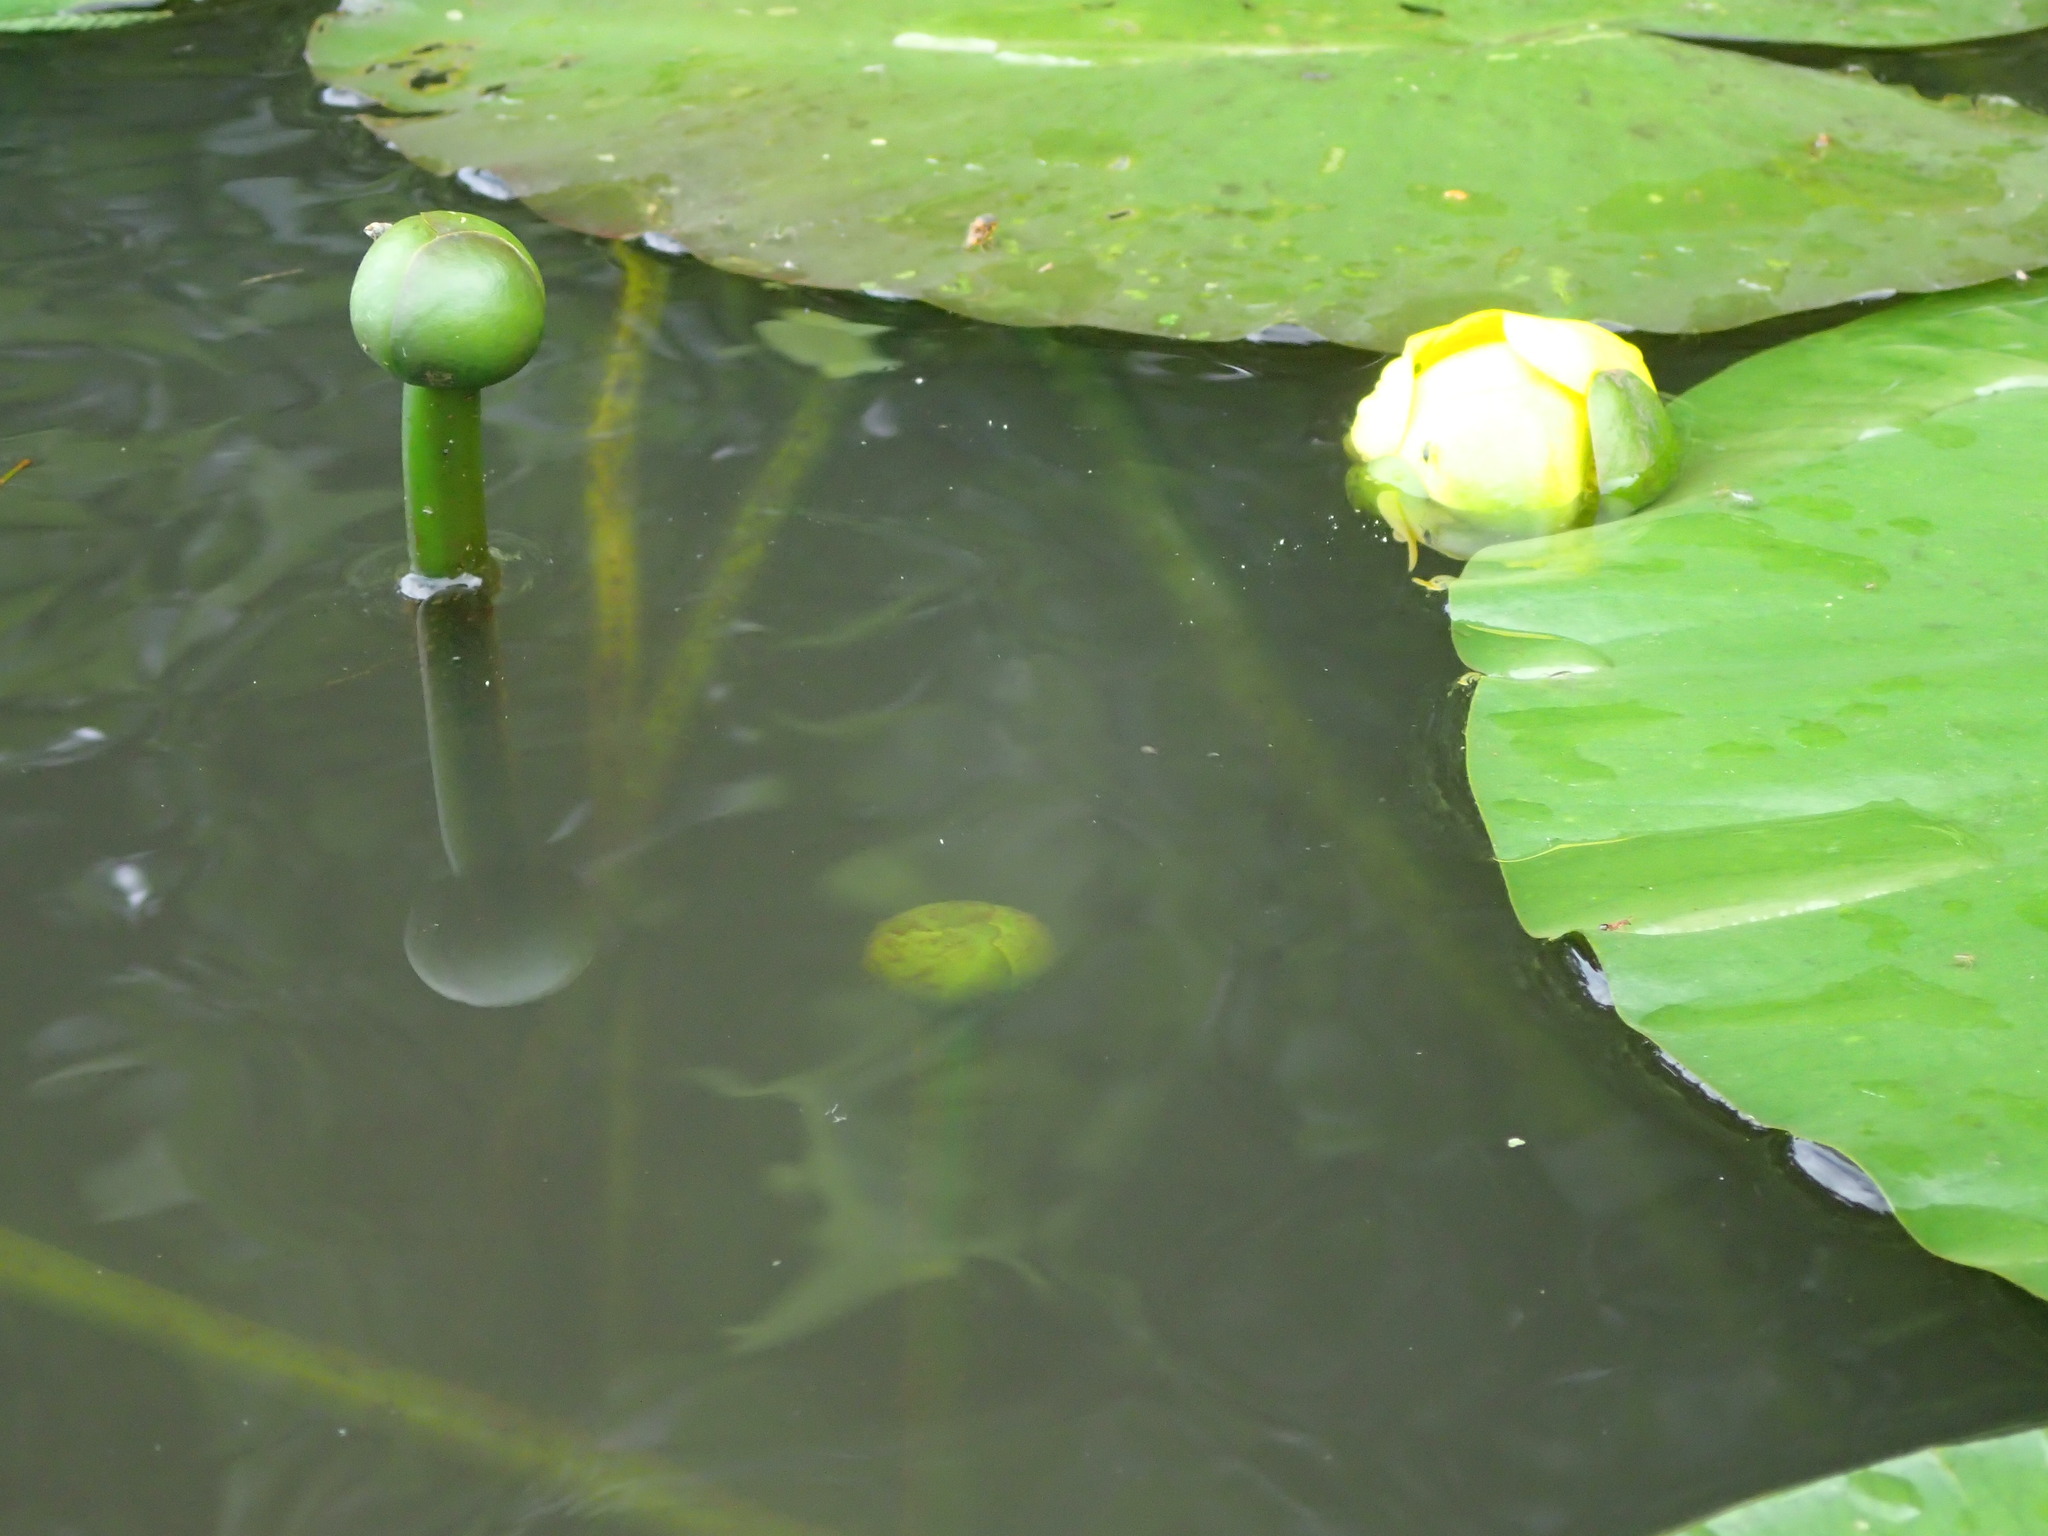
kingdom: Plantae
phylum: Tracheophyta
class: Magnoliopsida
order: Nymphaeales
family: Nymphaeaceae
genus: Nuphar
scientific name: Nuphar advena
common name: Spatter-dock
